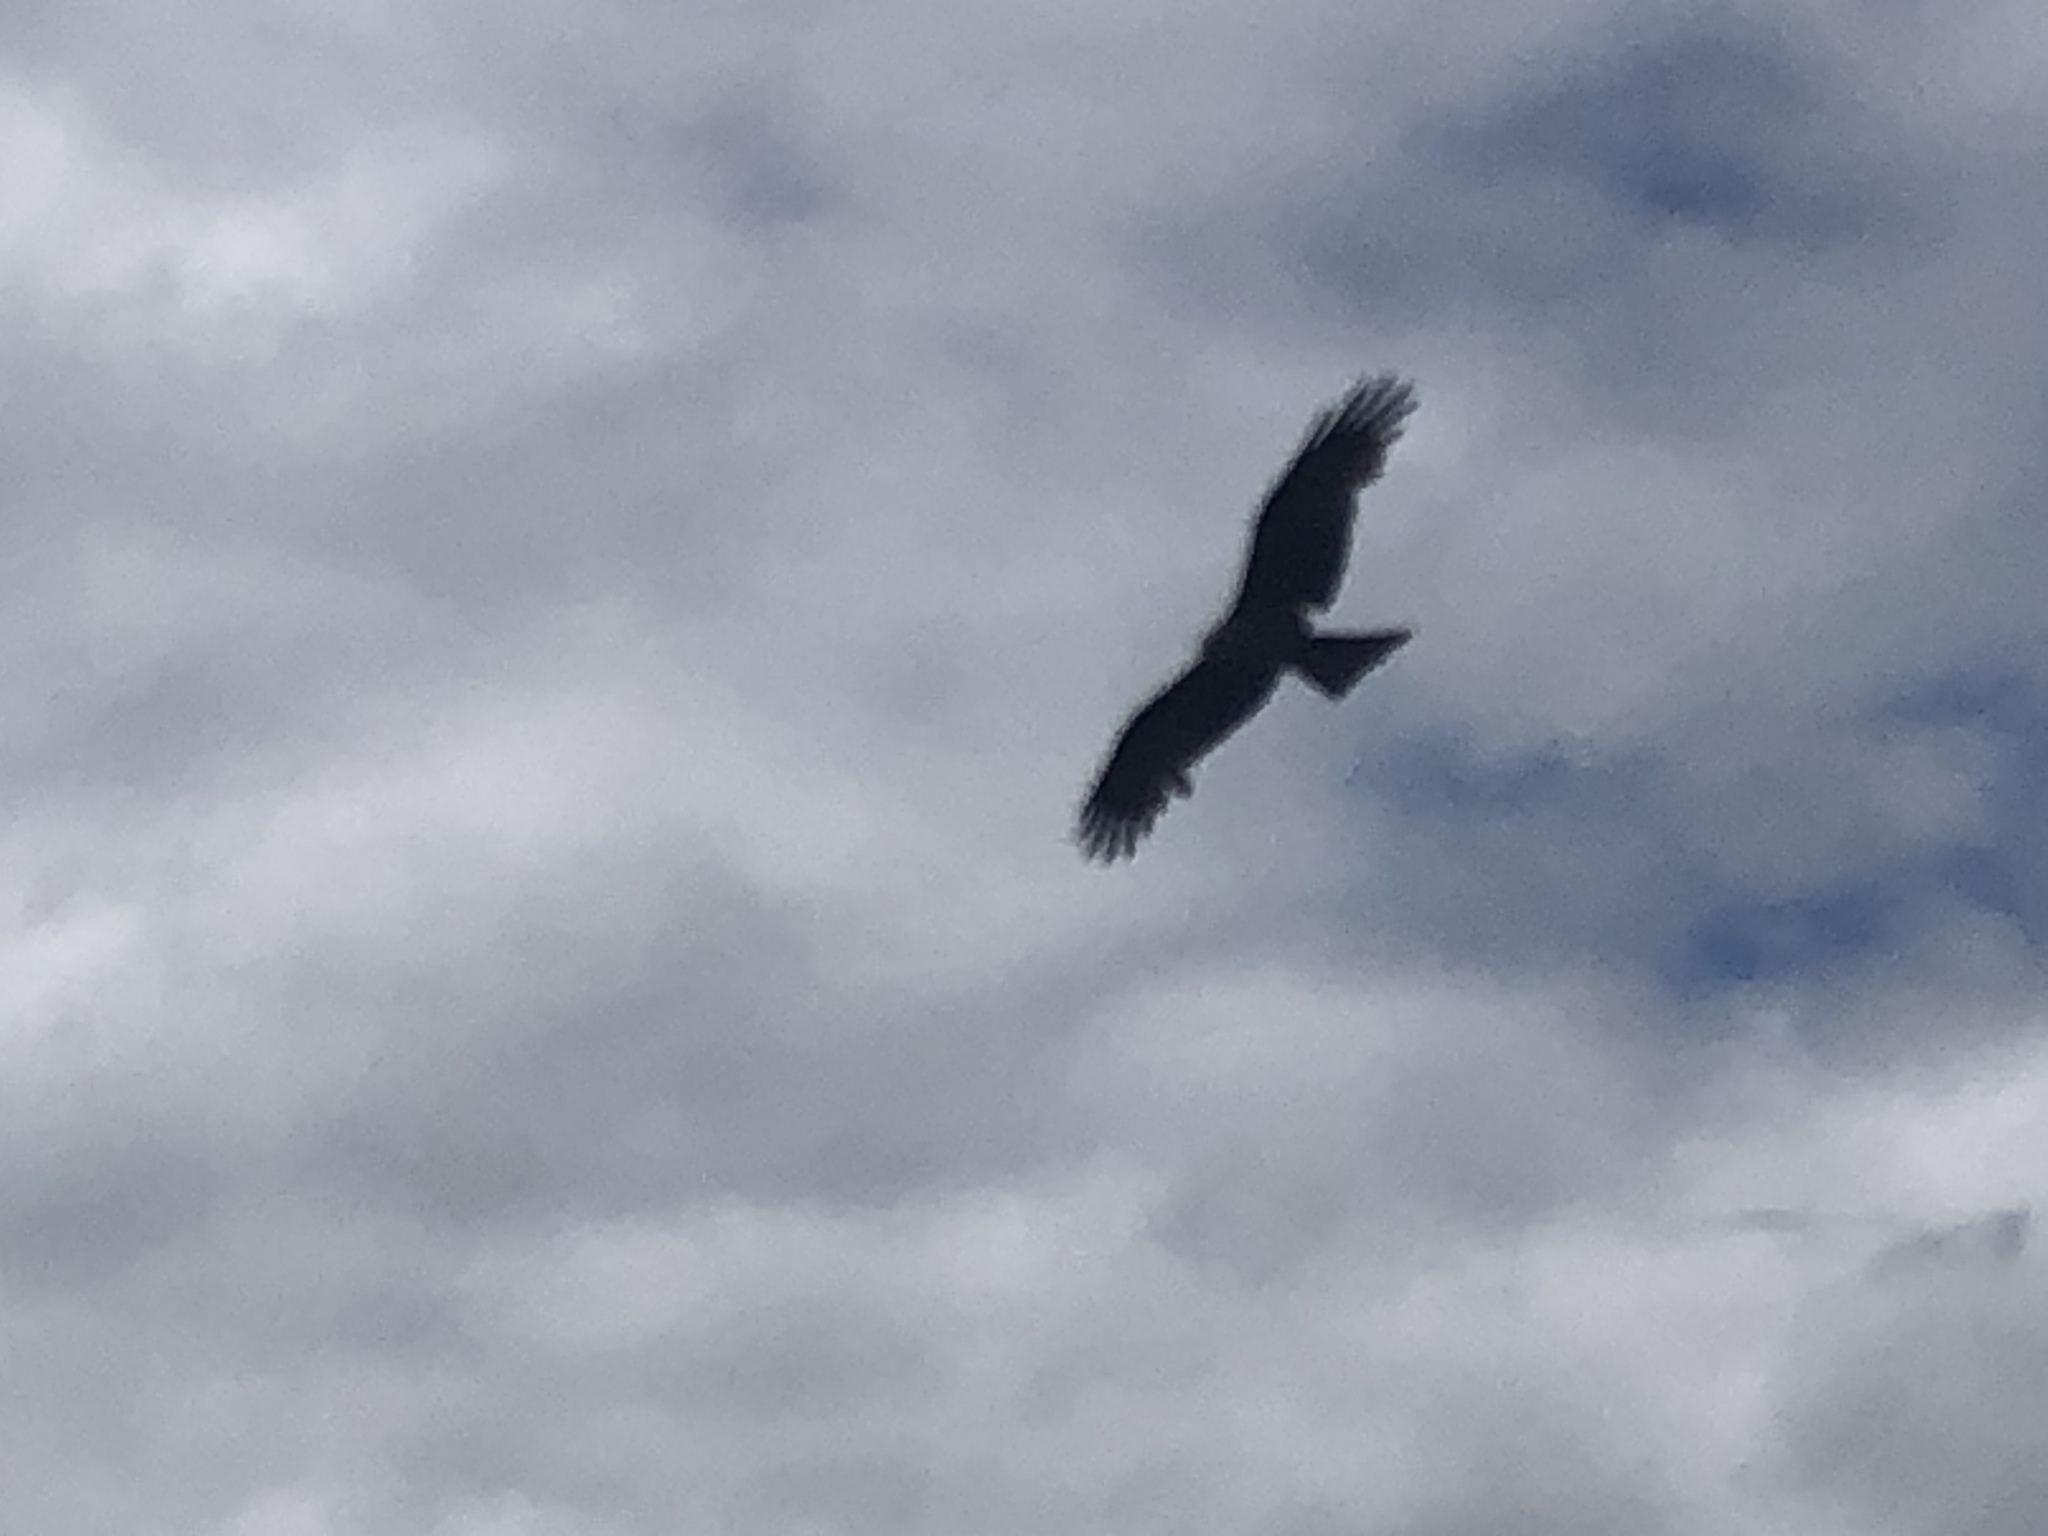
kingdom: Animalia
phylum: Chordata
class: Aves
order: Accipitriformes
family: Accipitridae
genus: Milvus
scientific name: Milvus migrans
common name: Black kite
